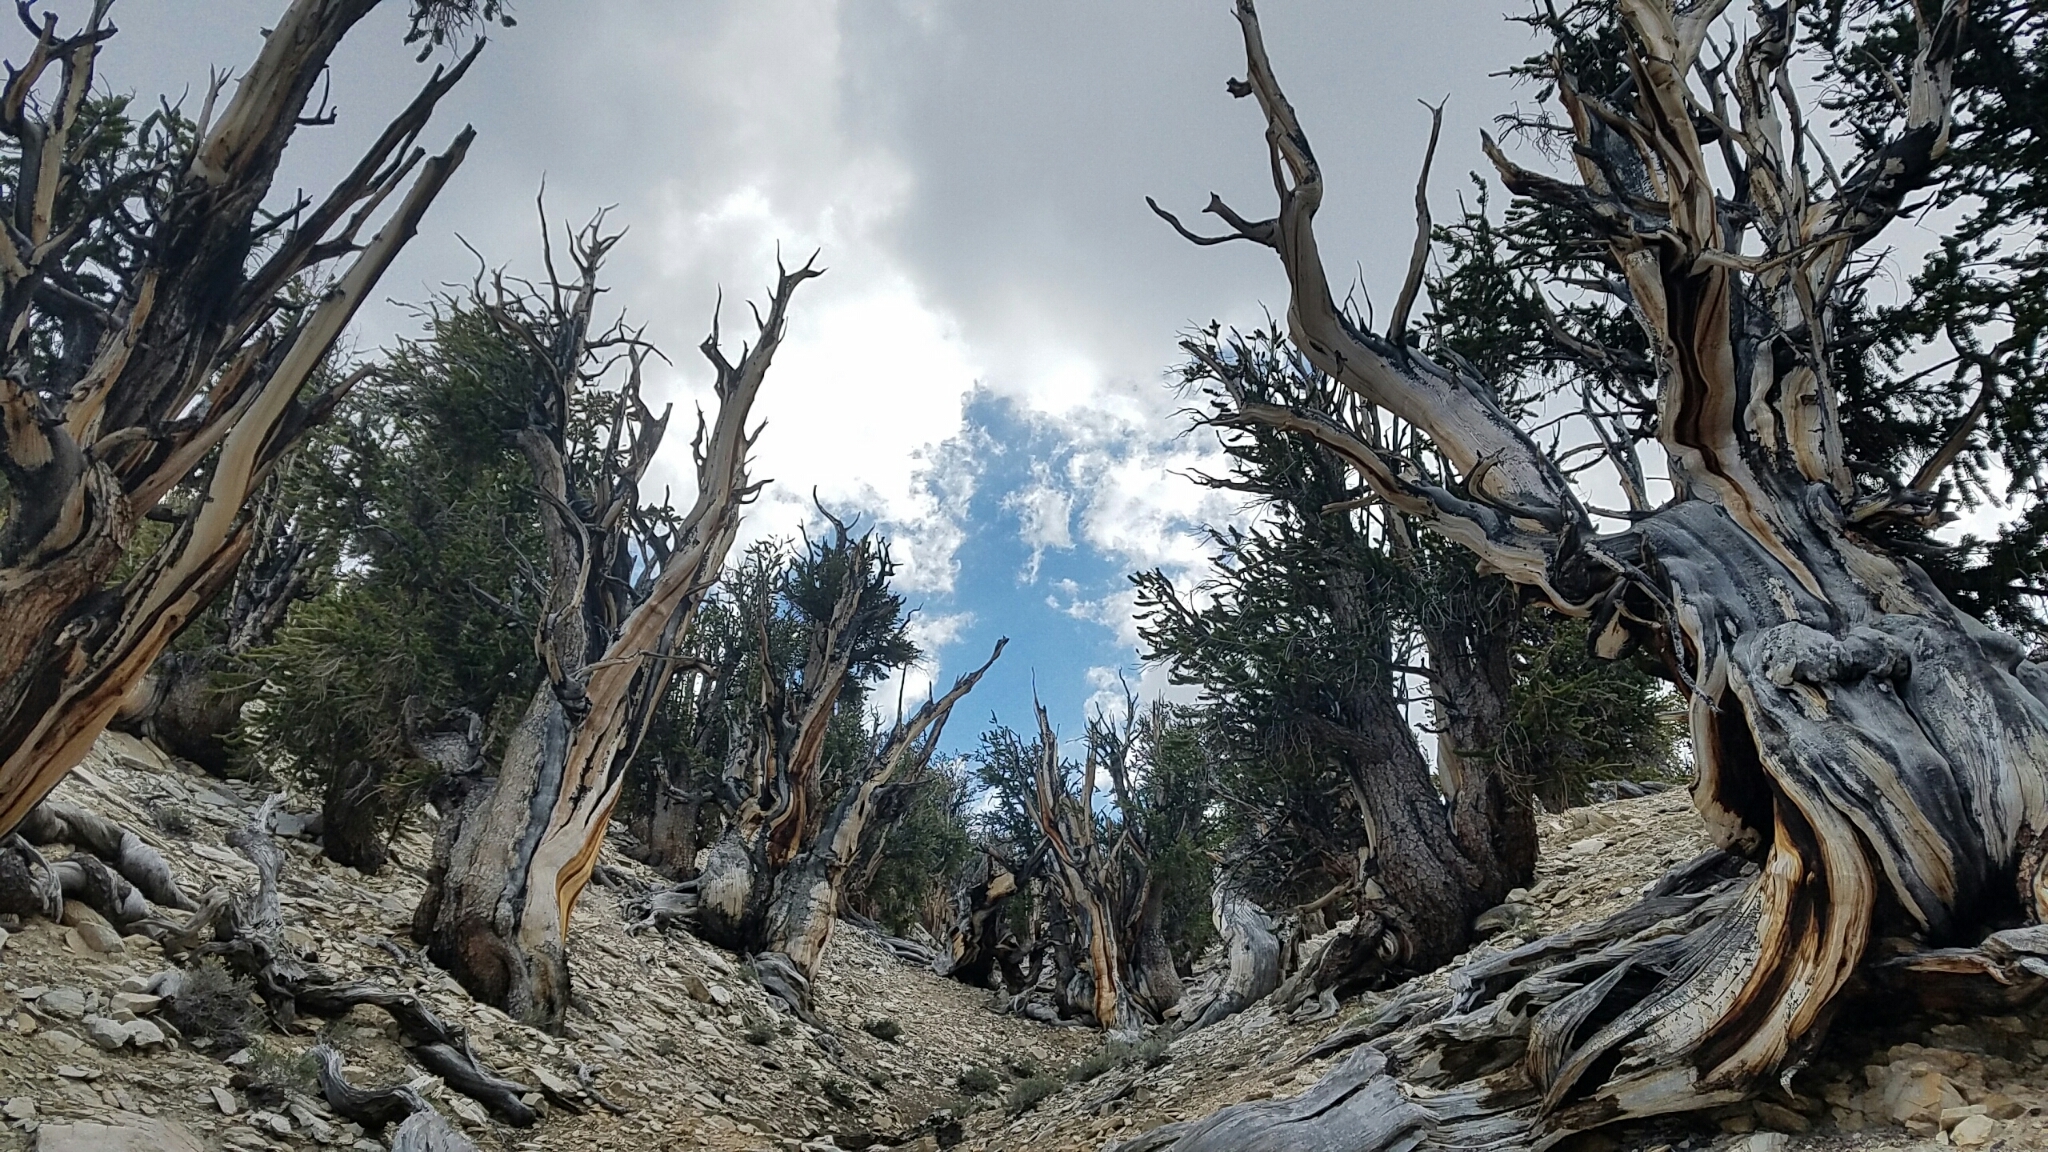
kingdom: Plantae
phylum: Tracheophyta
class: Pinopsida
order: Pinales
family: Pinaceae
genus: Pinus
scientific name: Pinus longaeva
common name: Intermountain bristlecone pine
